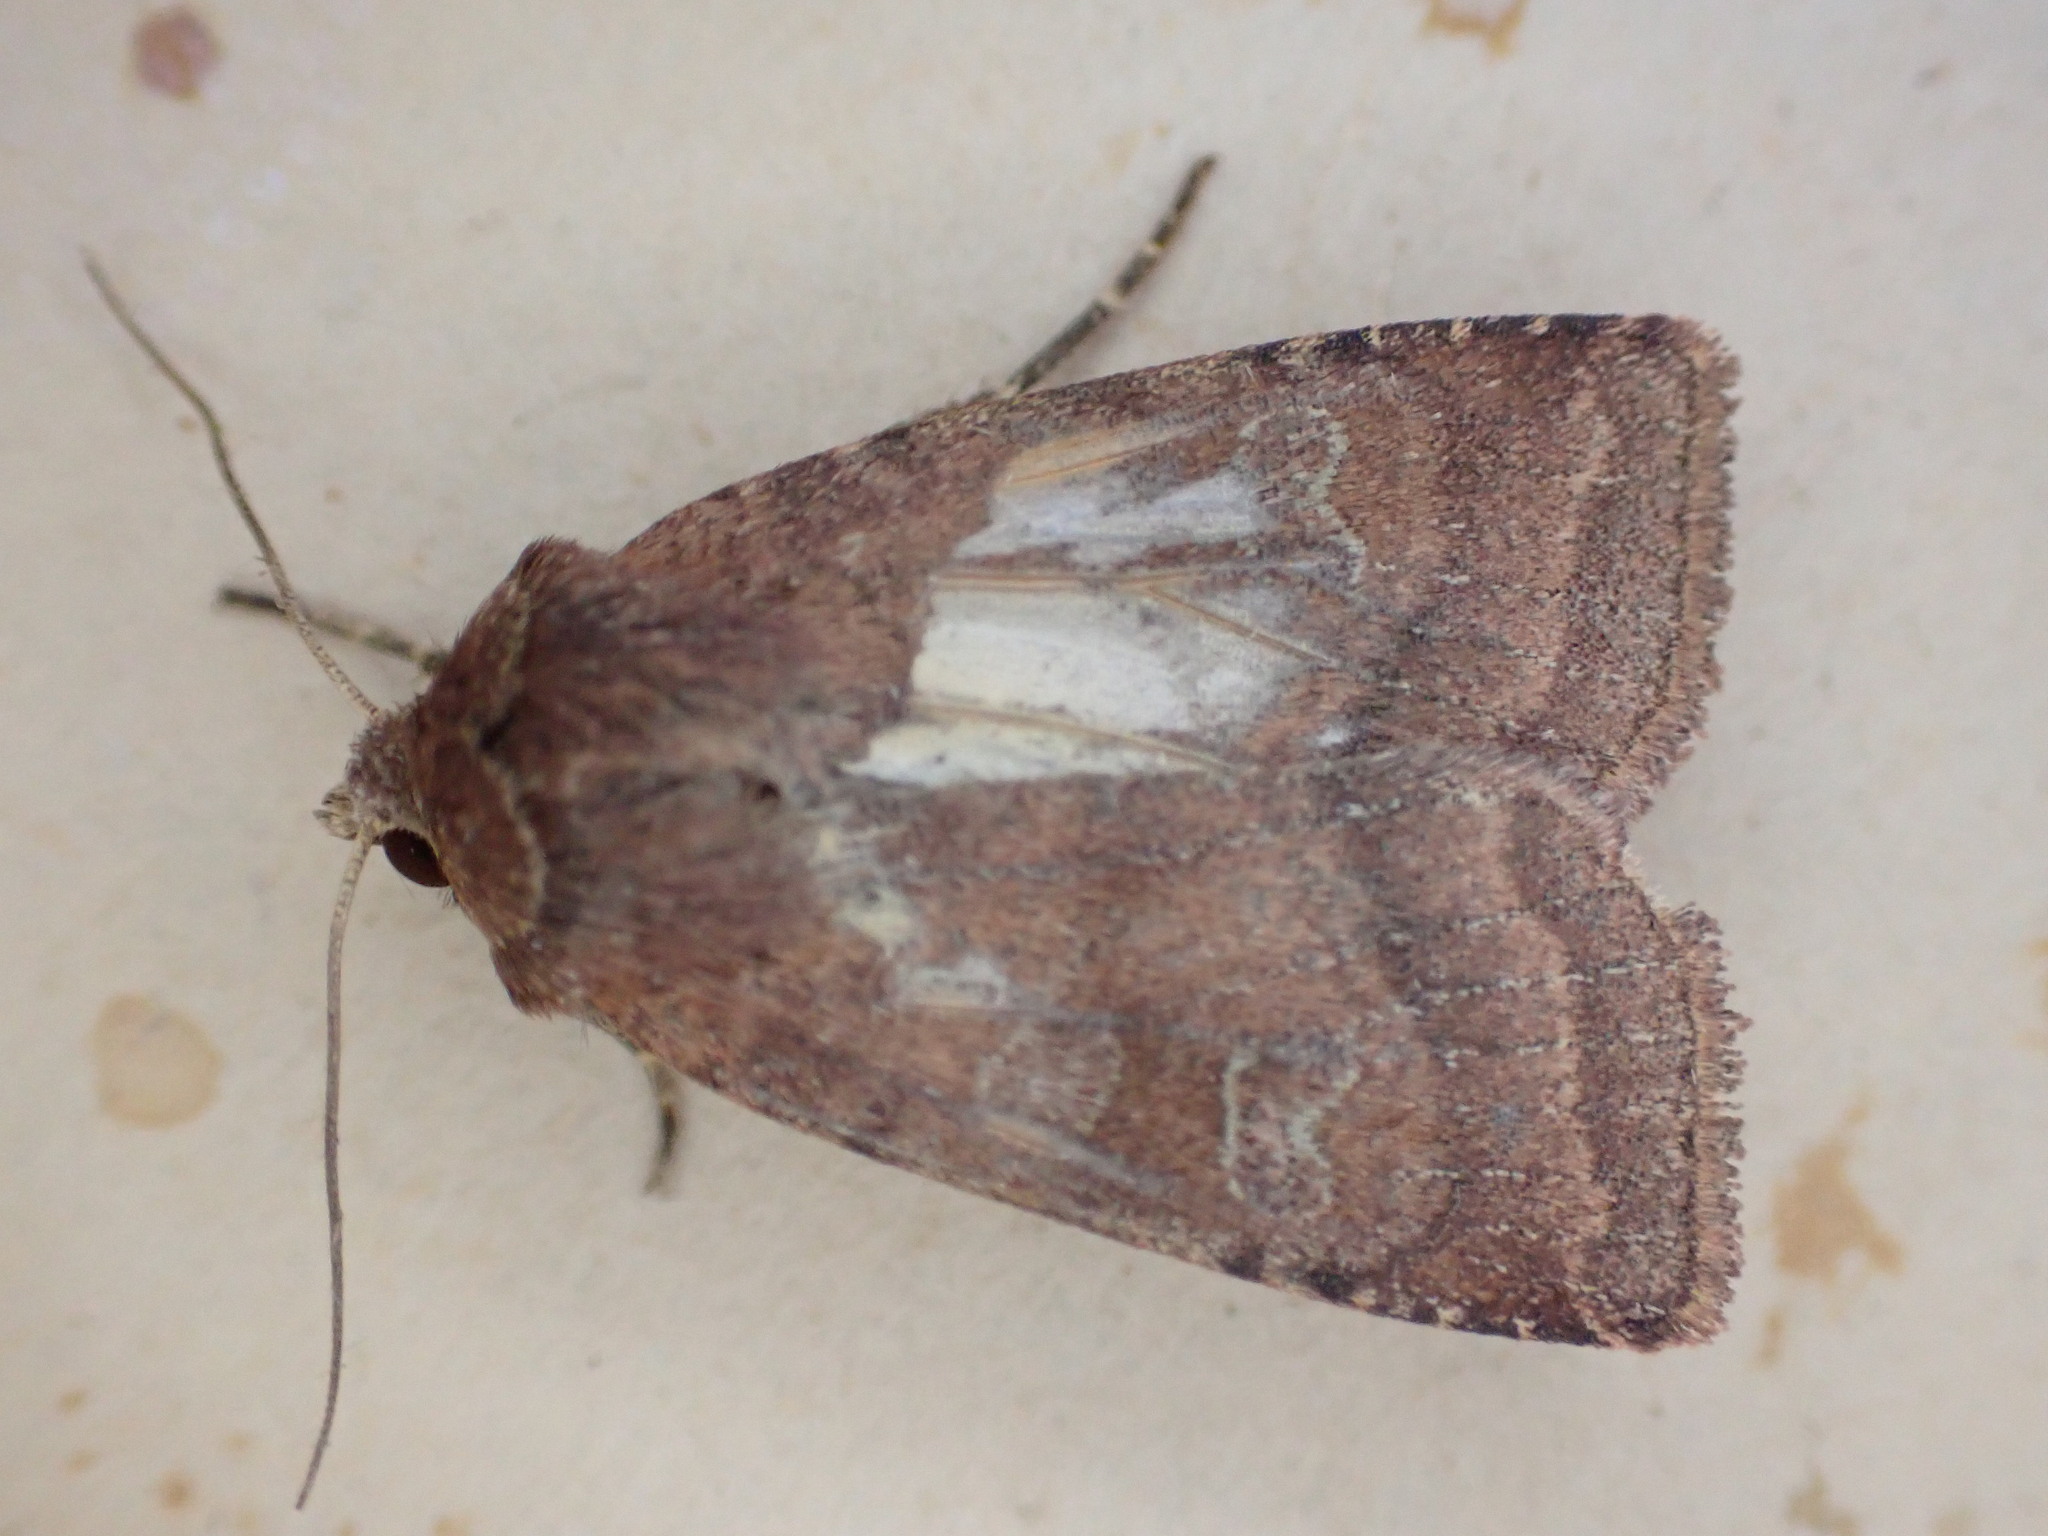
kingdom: Animalia
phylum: Arthropoda
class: Insecta
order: Lepidoptera
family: Noctuidae
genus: Diarsia
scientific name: Diarsia rubi
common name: Small square-spot
